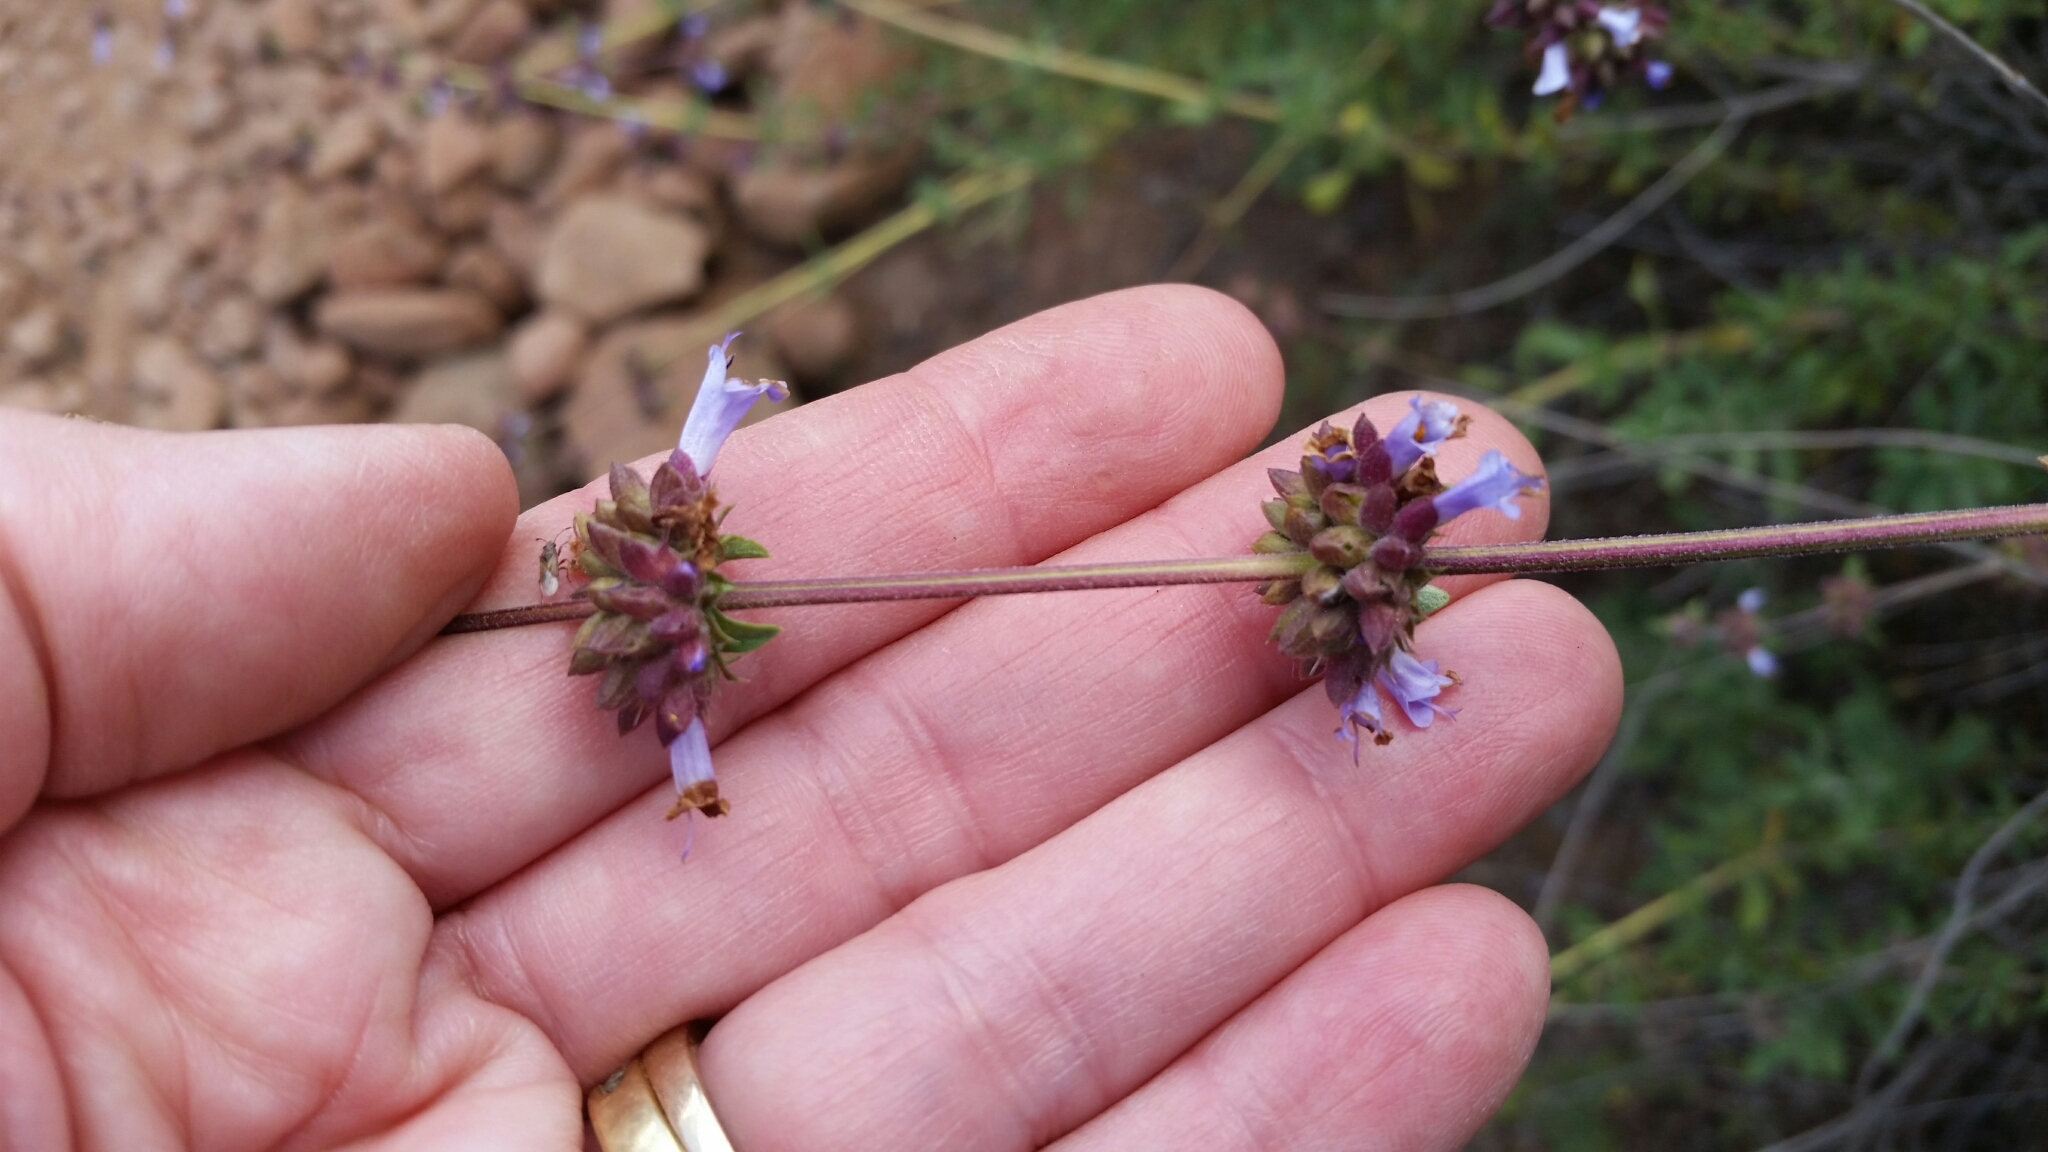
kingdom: Plantae
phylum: Tracheophyta
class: Magnoliopsida
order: Lamiales
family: Lamiaceae
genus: Salvia
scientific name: Salvia munzii
